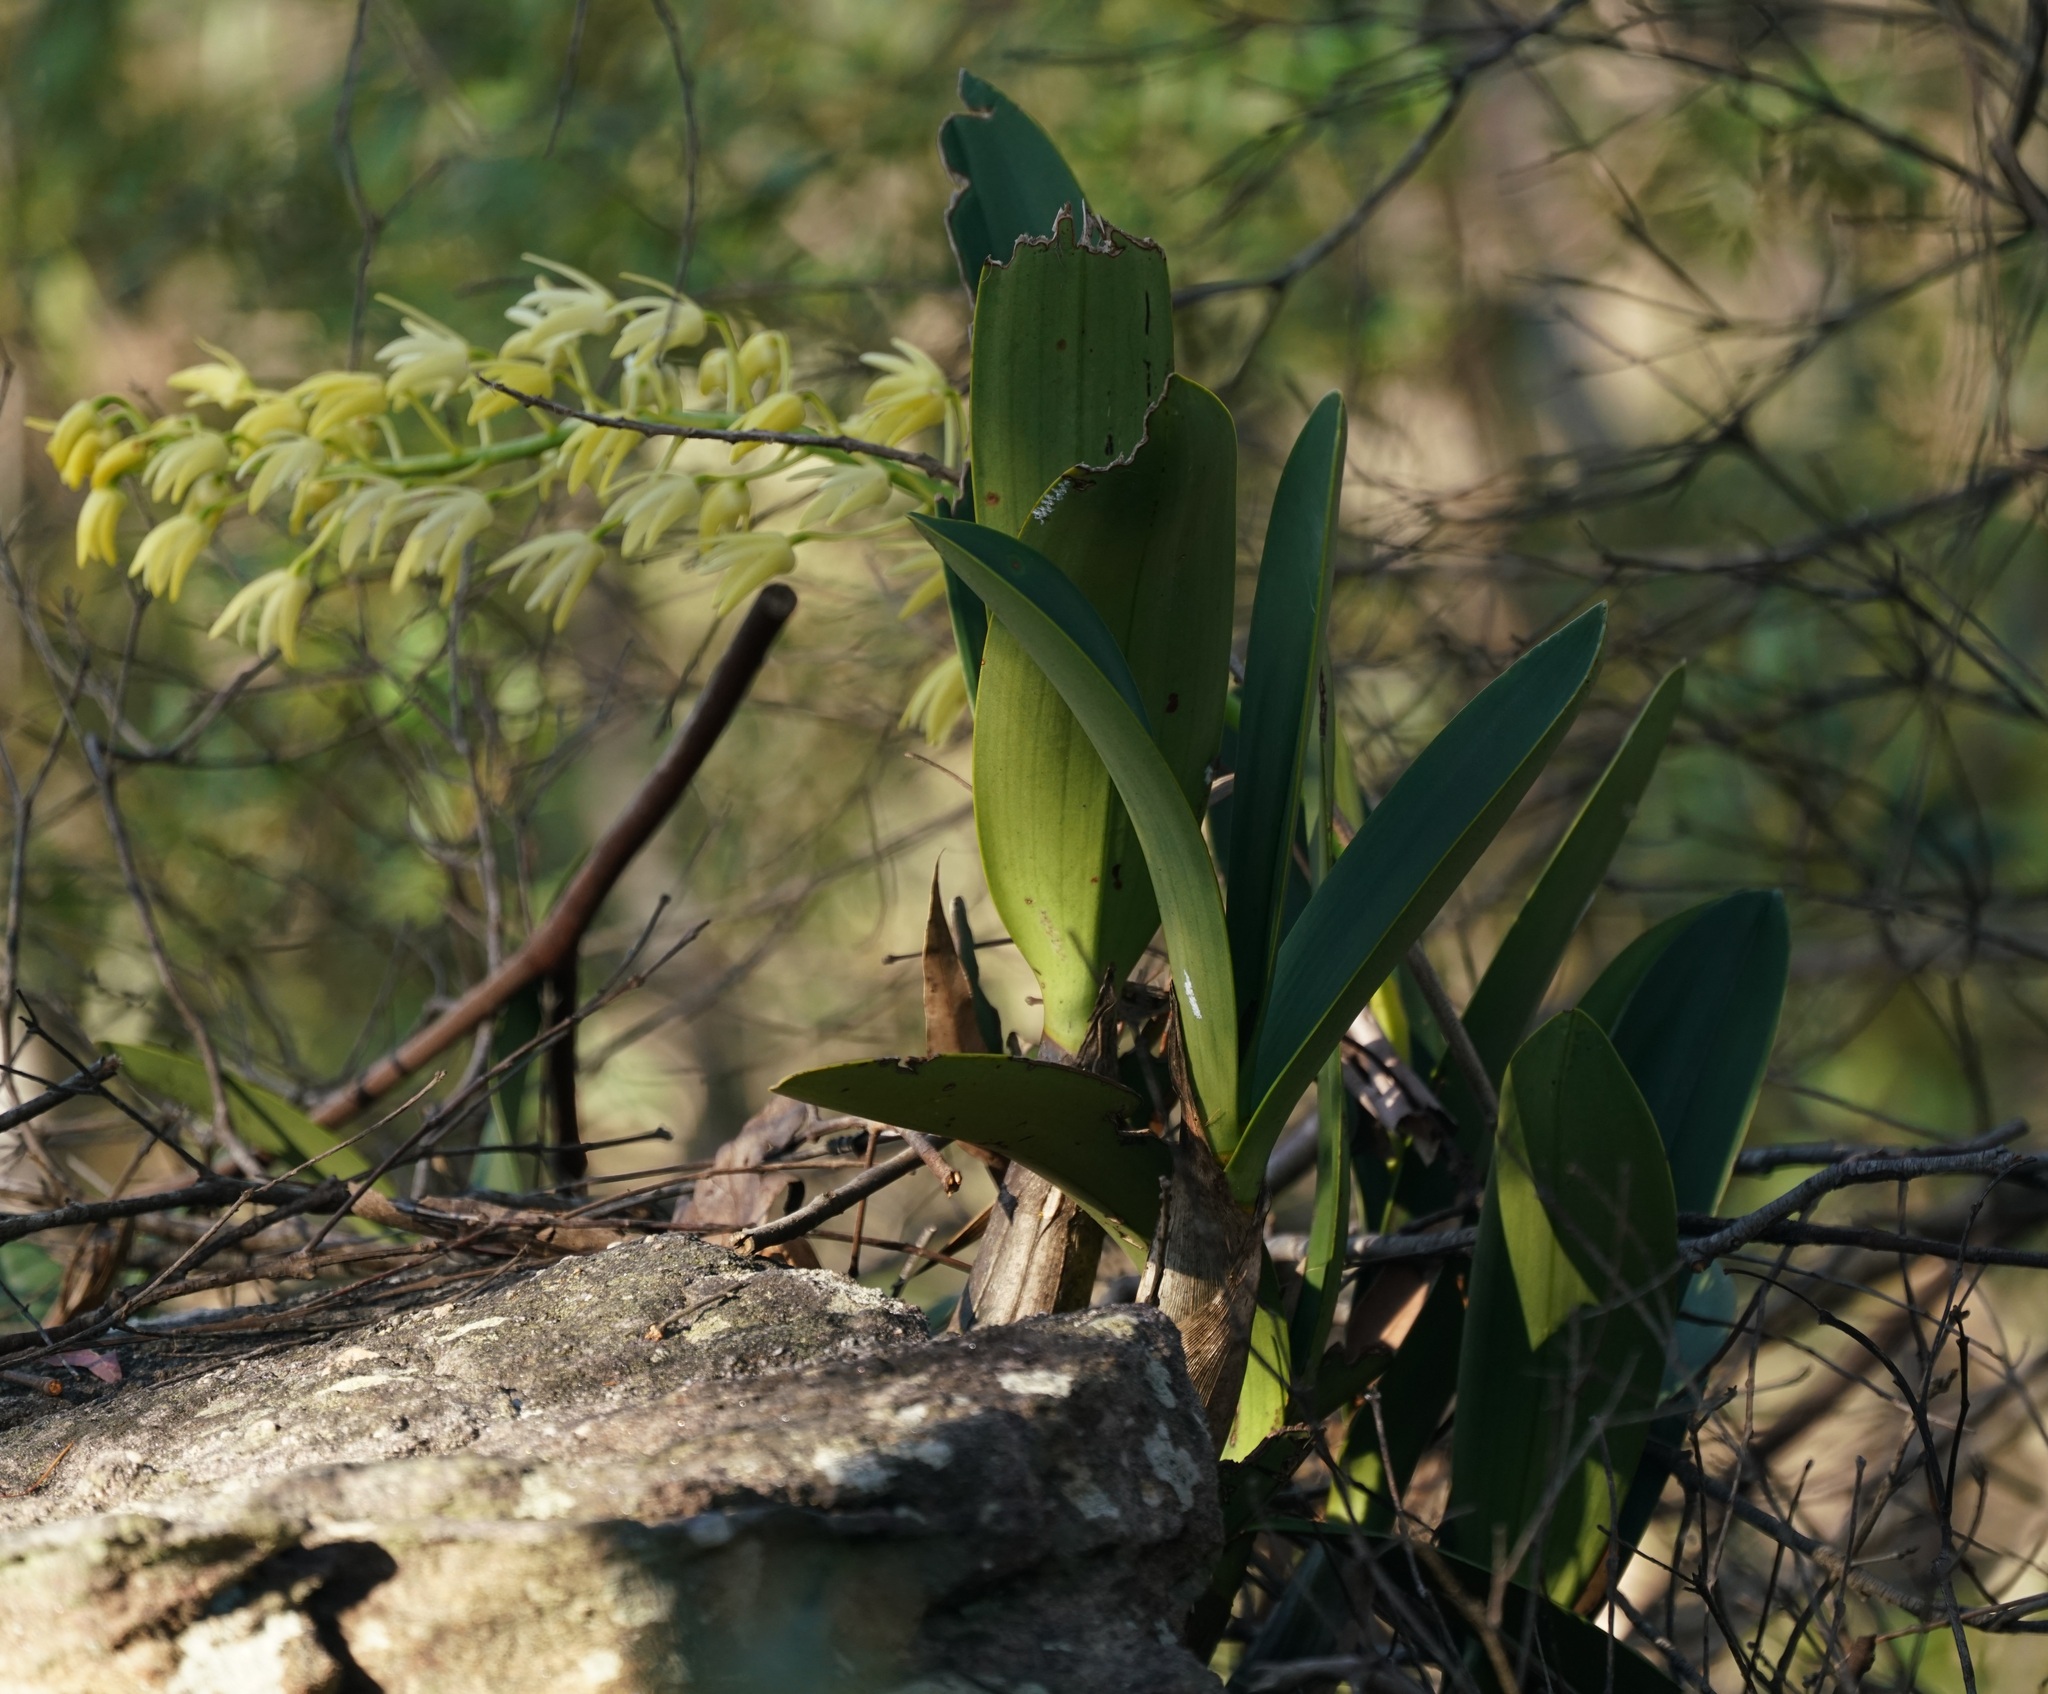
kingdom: Plantae
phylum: Tracheophyta
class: Liliopsida
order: Asparagales
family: Orchidaceae
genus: Dendrobium
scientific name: Dendrobium speciosum
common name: Rock-lily
